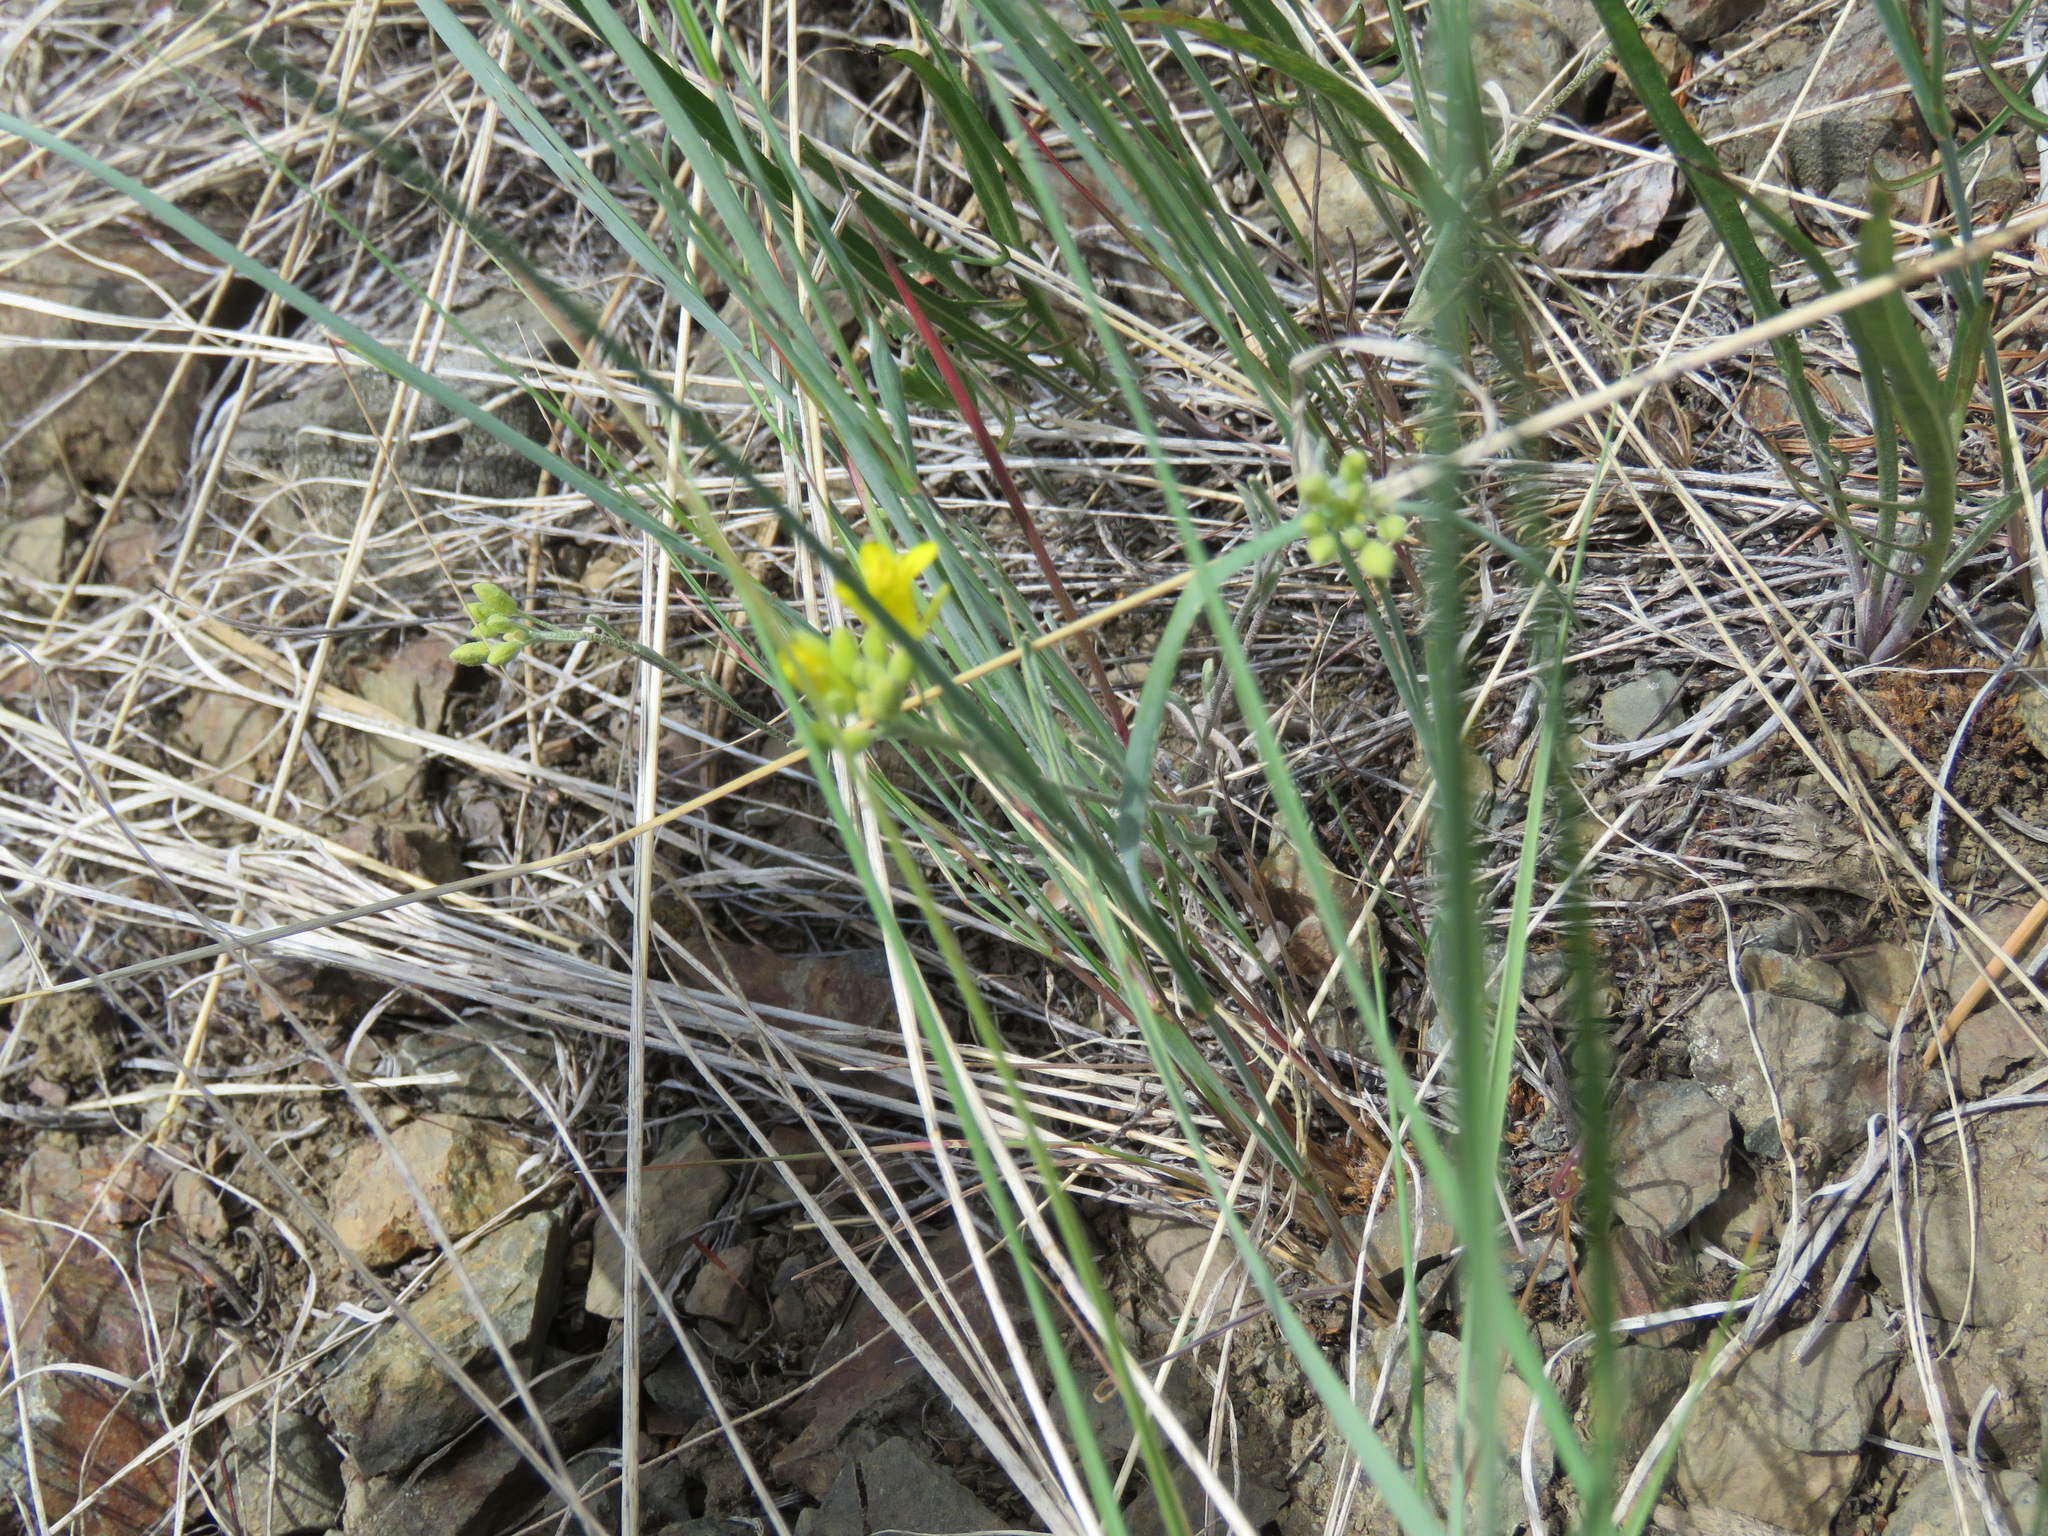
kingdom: Plantae
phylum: Tracheophyta
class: Magnoliopsida
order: Brassicales
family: Brassicaceae
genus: Physaria
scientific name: Physaria douglasii
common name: Douglas's bladderpod
